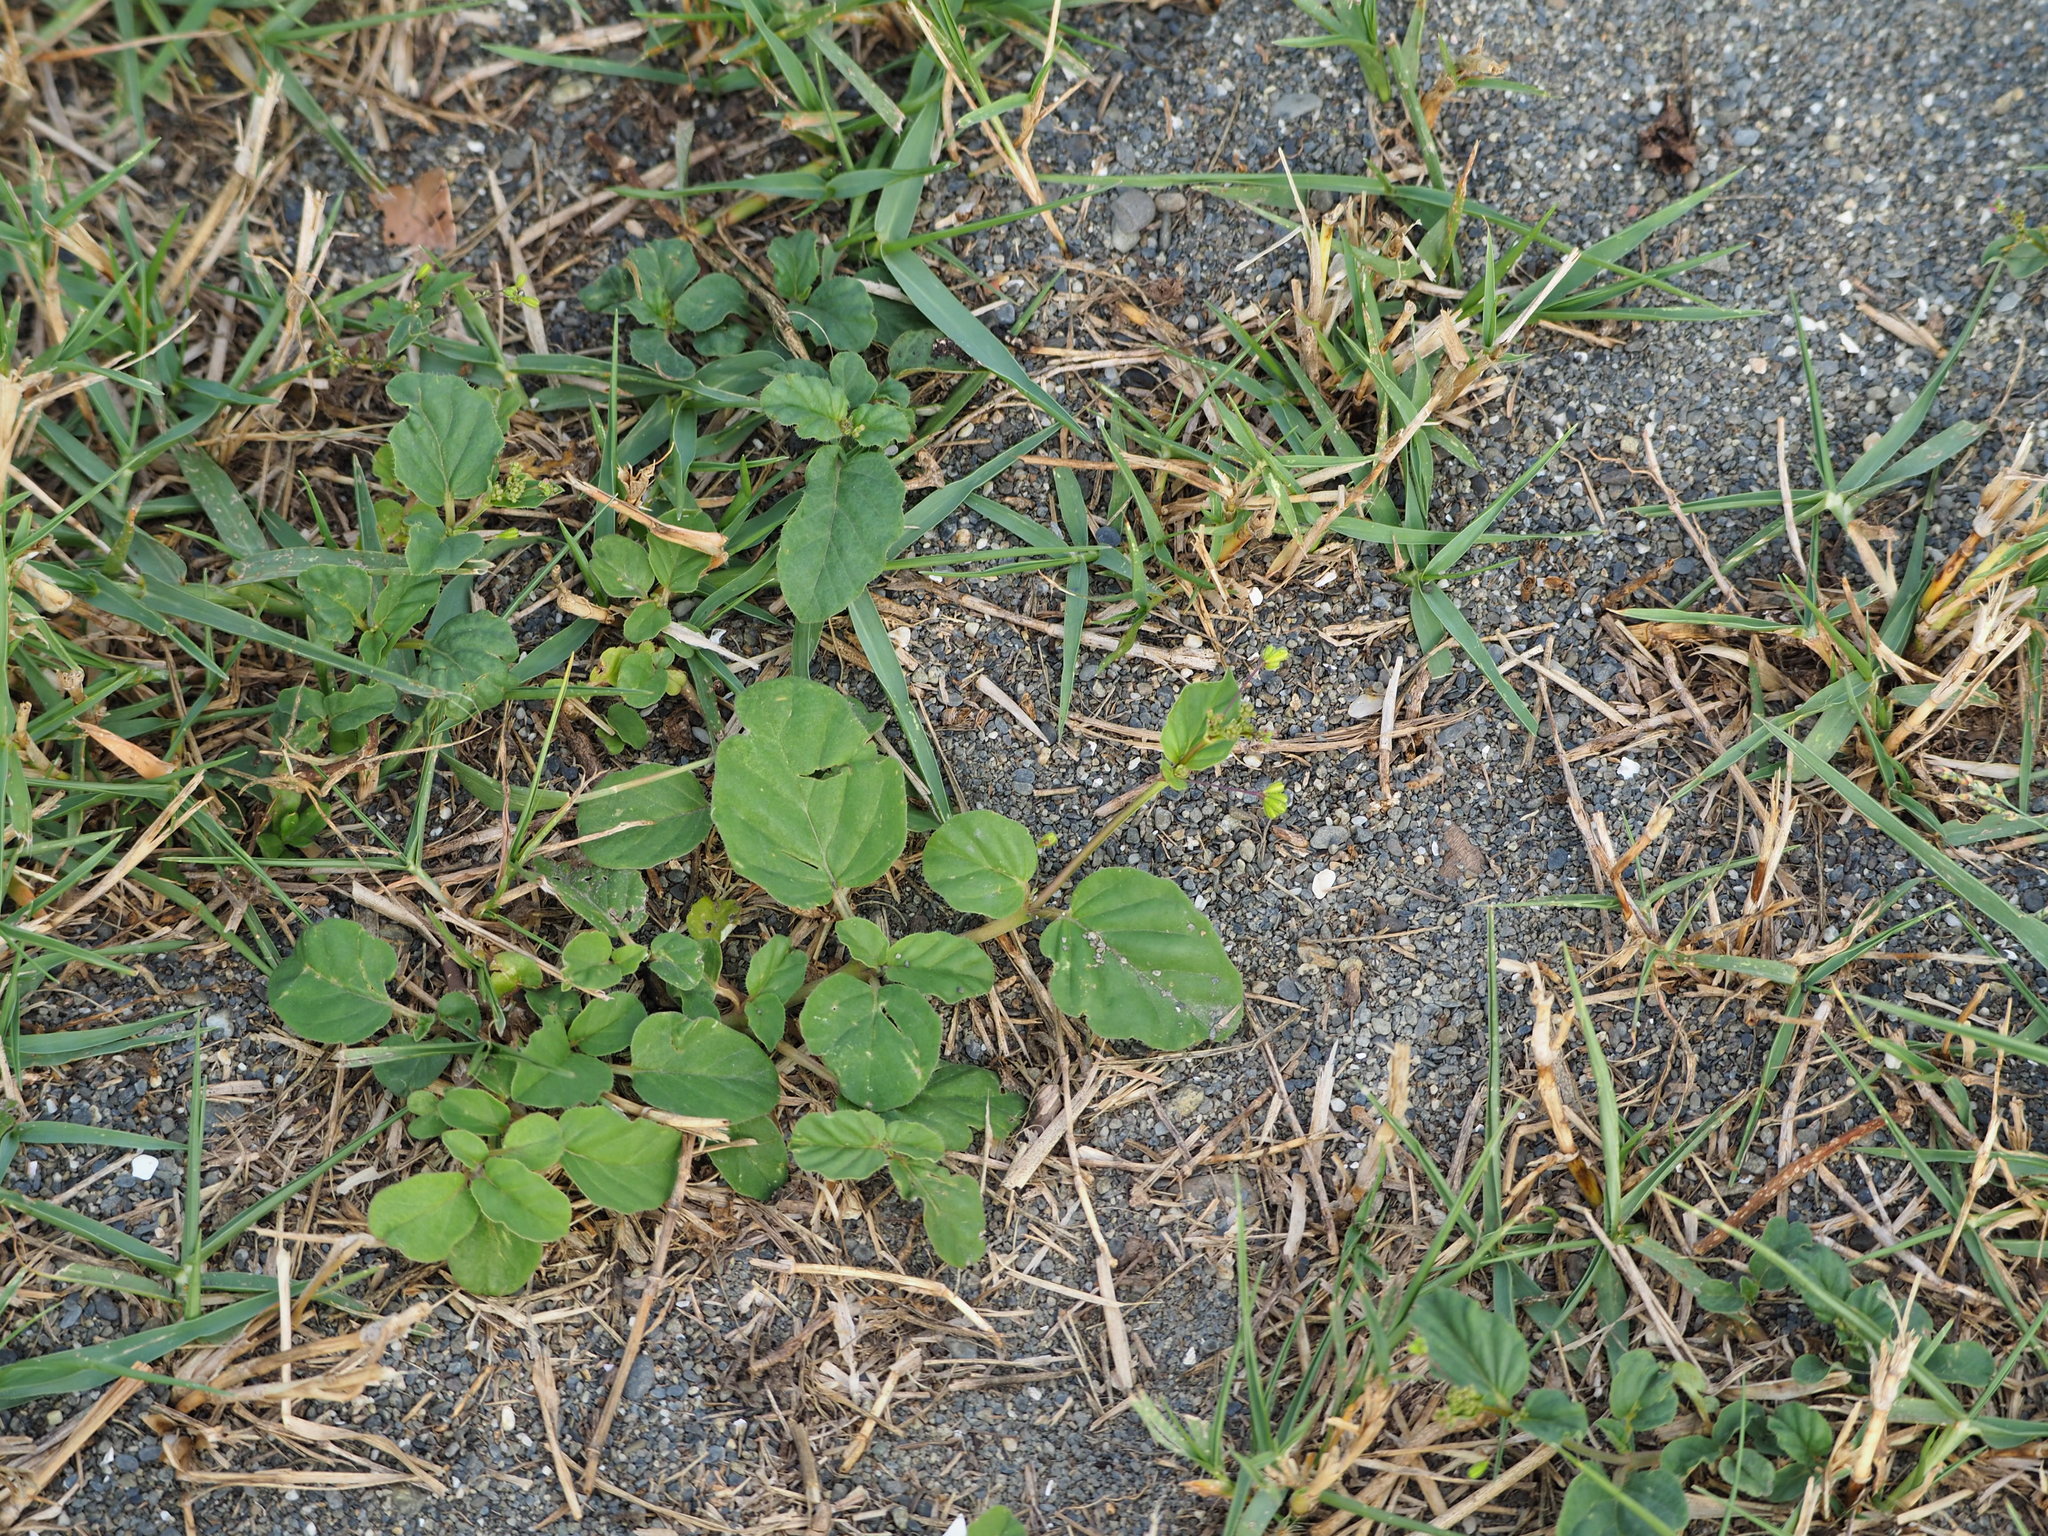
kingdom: Plantae
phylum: Tracheophyta
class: Magnoliopsida
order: Caryophyllales
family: Nyctaginaceae
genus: Boerhavia
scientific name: Boerhavia coccinea
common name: Scarlet spiderling
